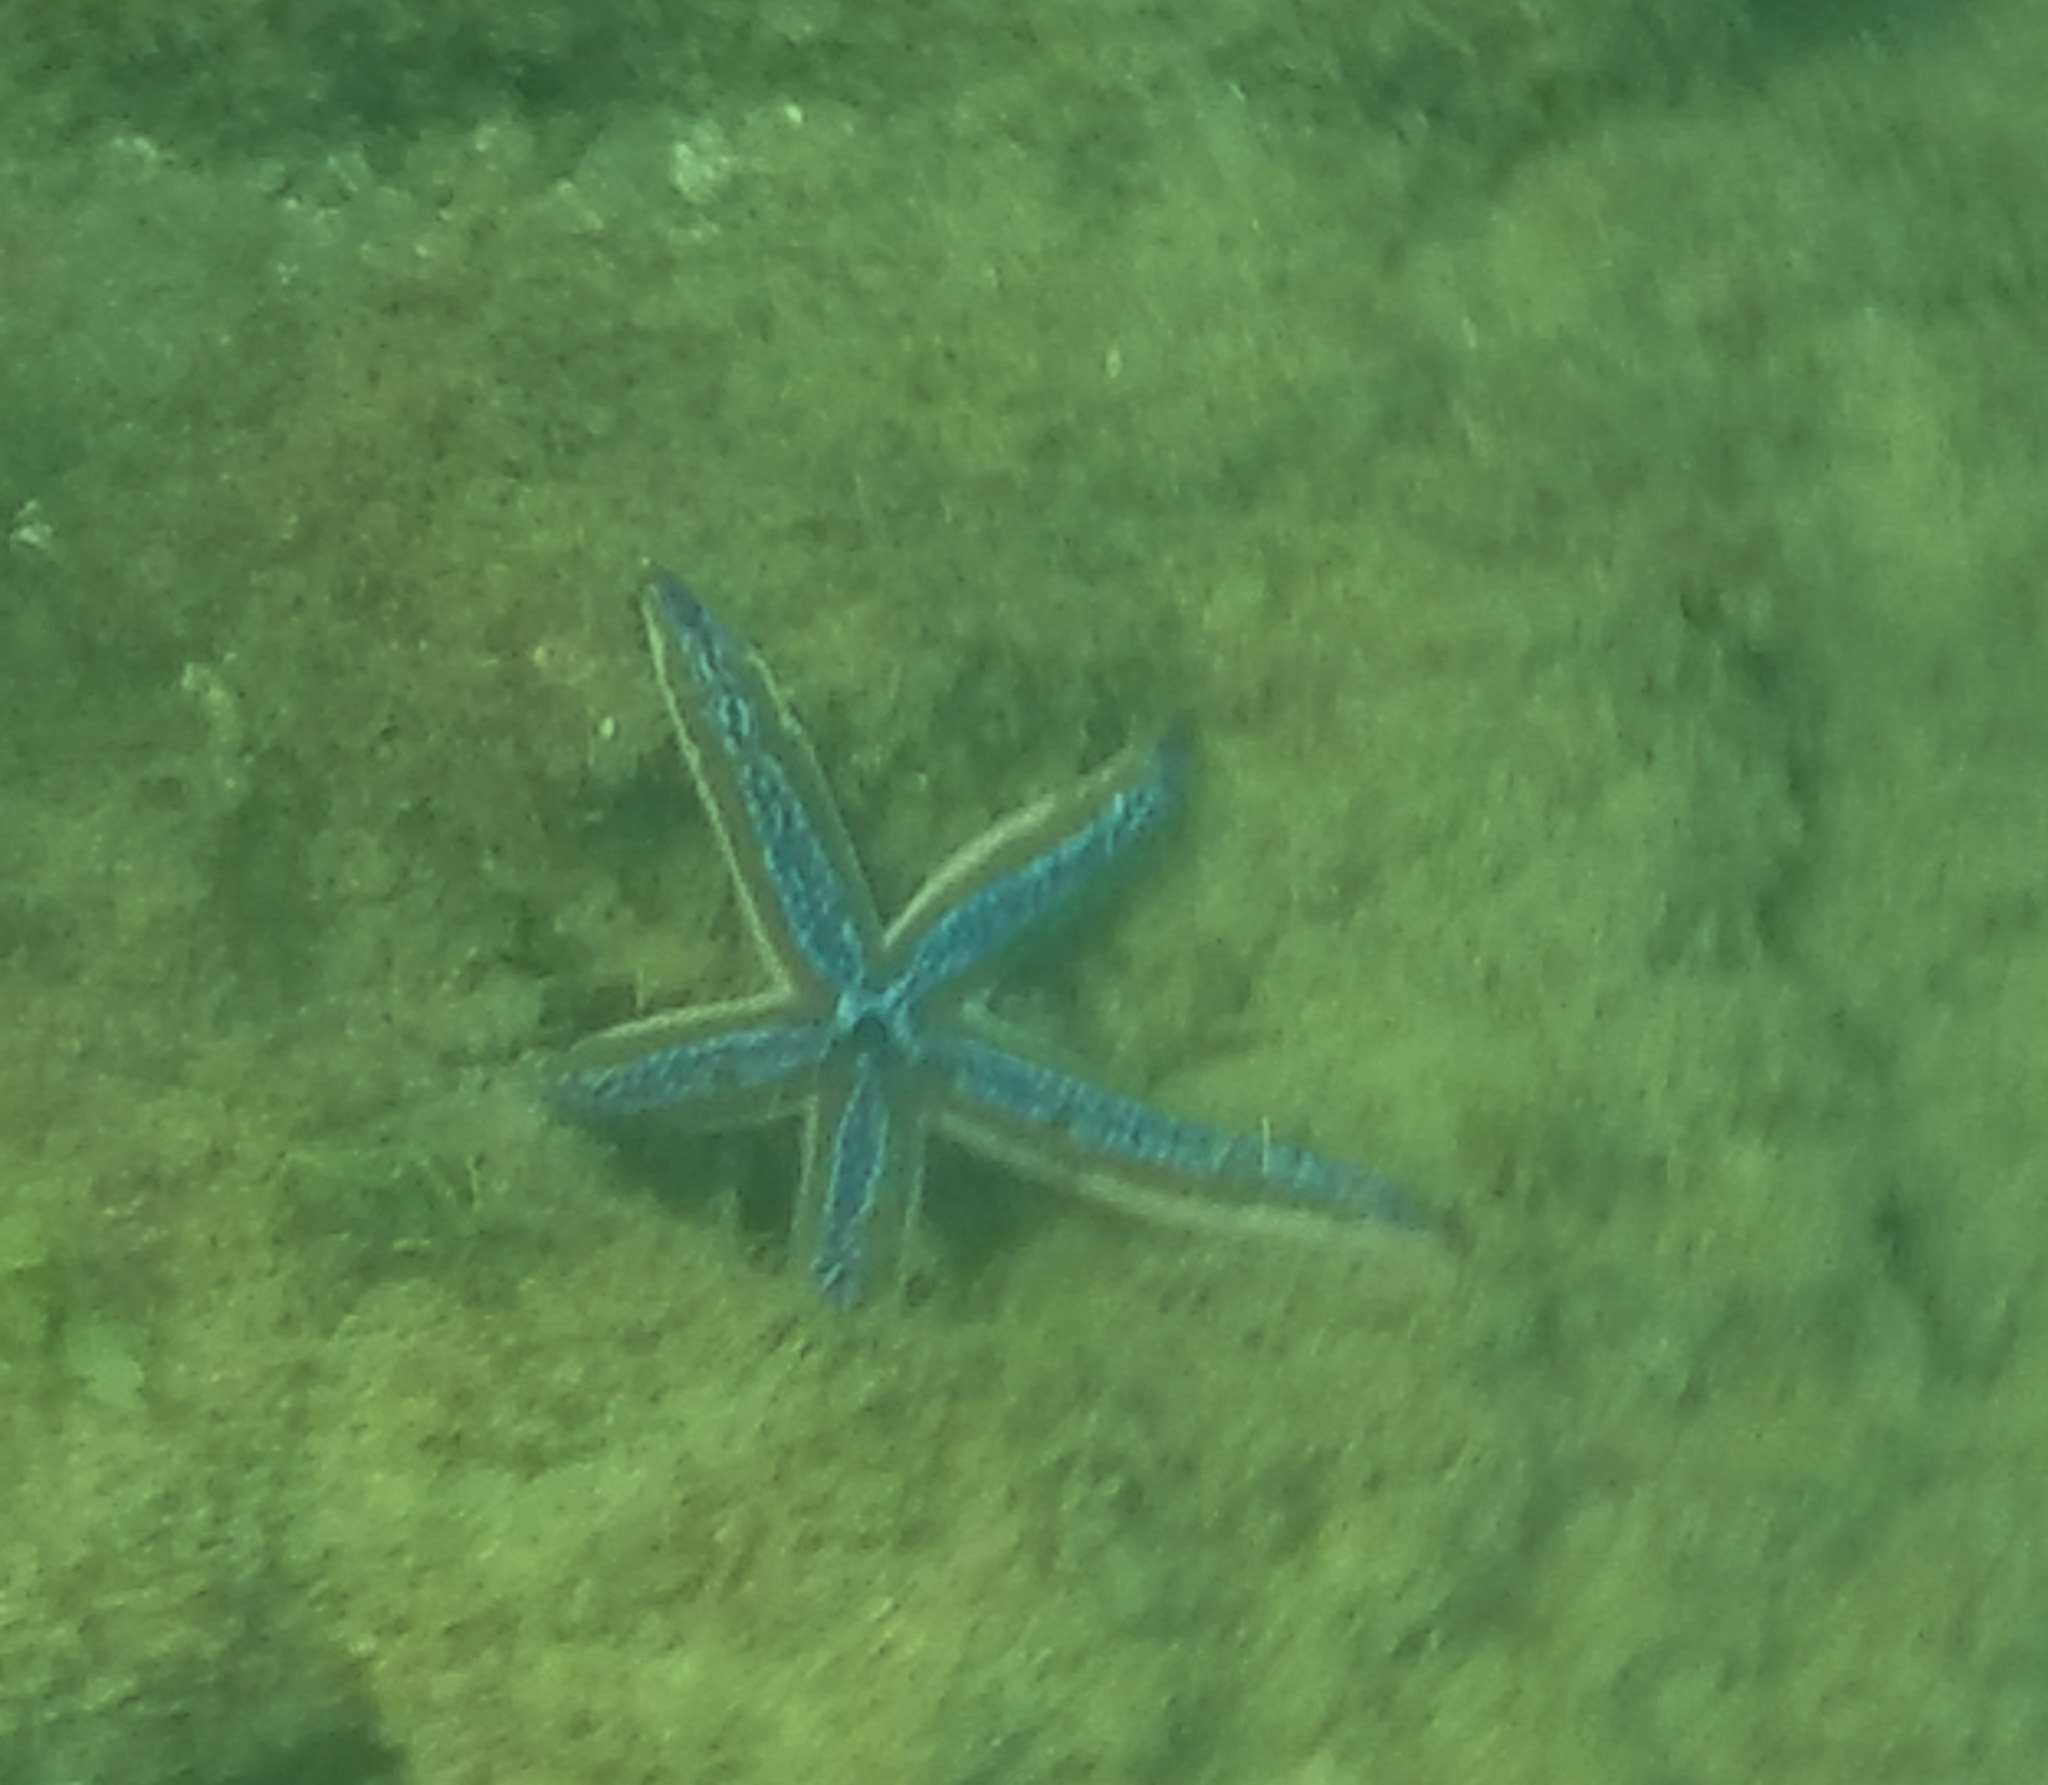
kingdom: Animalia
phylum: Echinodermata
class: Asteroidea
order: Valvatida
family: Ophidiasteridae
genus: Phataria
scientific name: Phataria unifascialis
